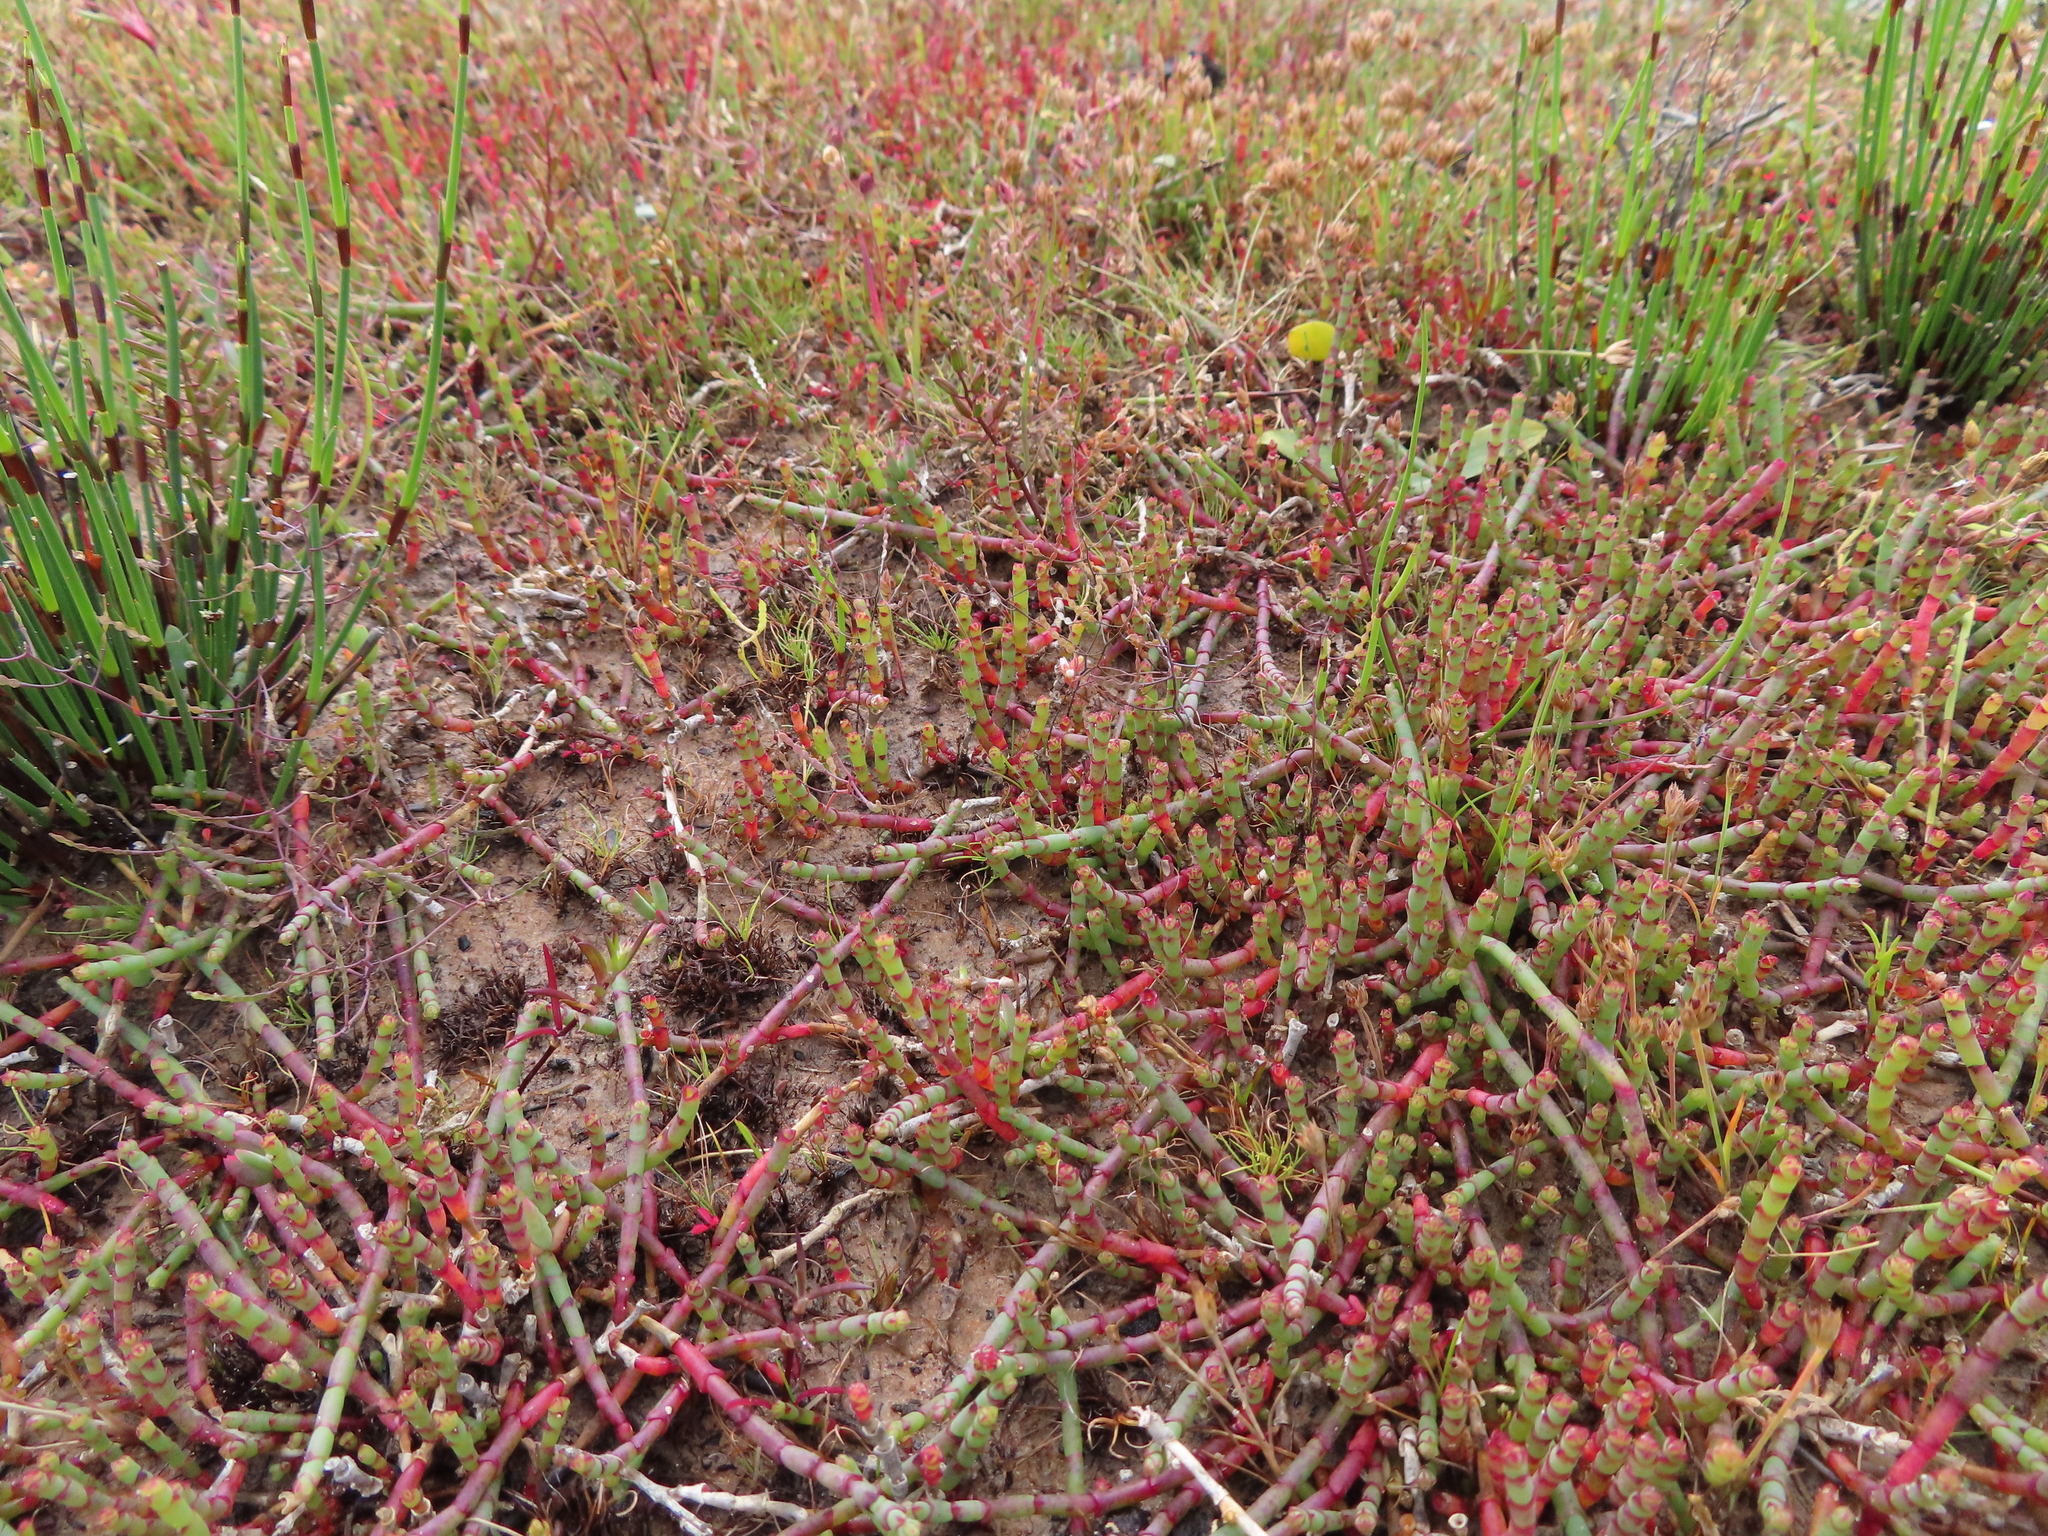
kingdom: Plantae
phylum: Tracheophyta
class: Magnoliopsida
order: Caryophyllales
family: Amaranthaceae
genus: Salicornia
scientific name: Salicornia capensis
